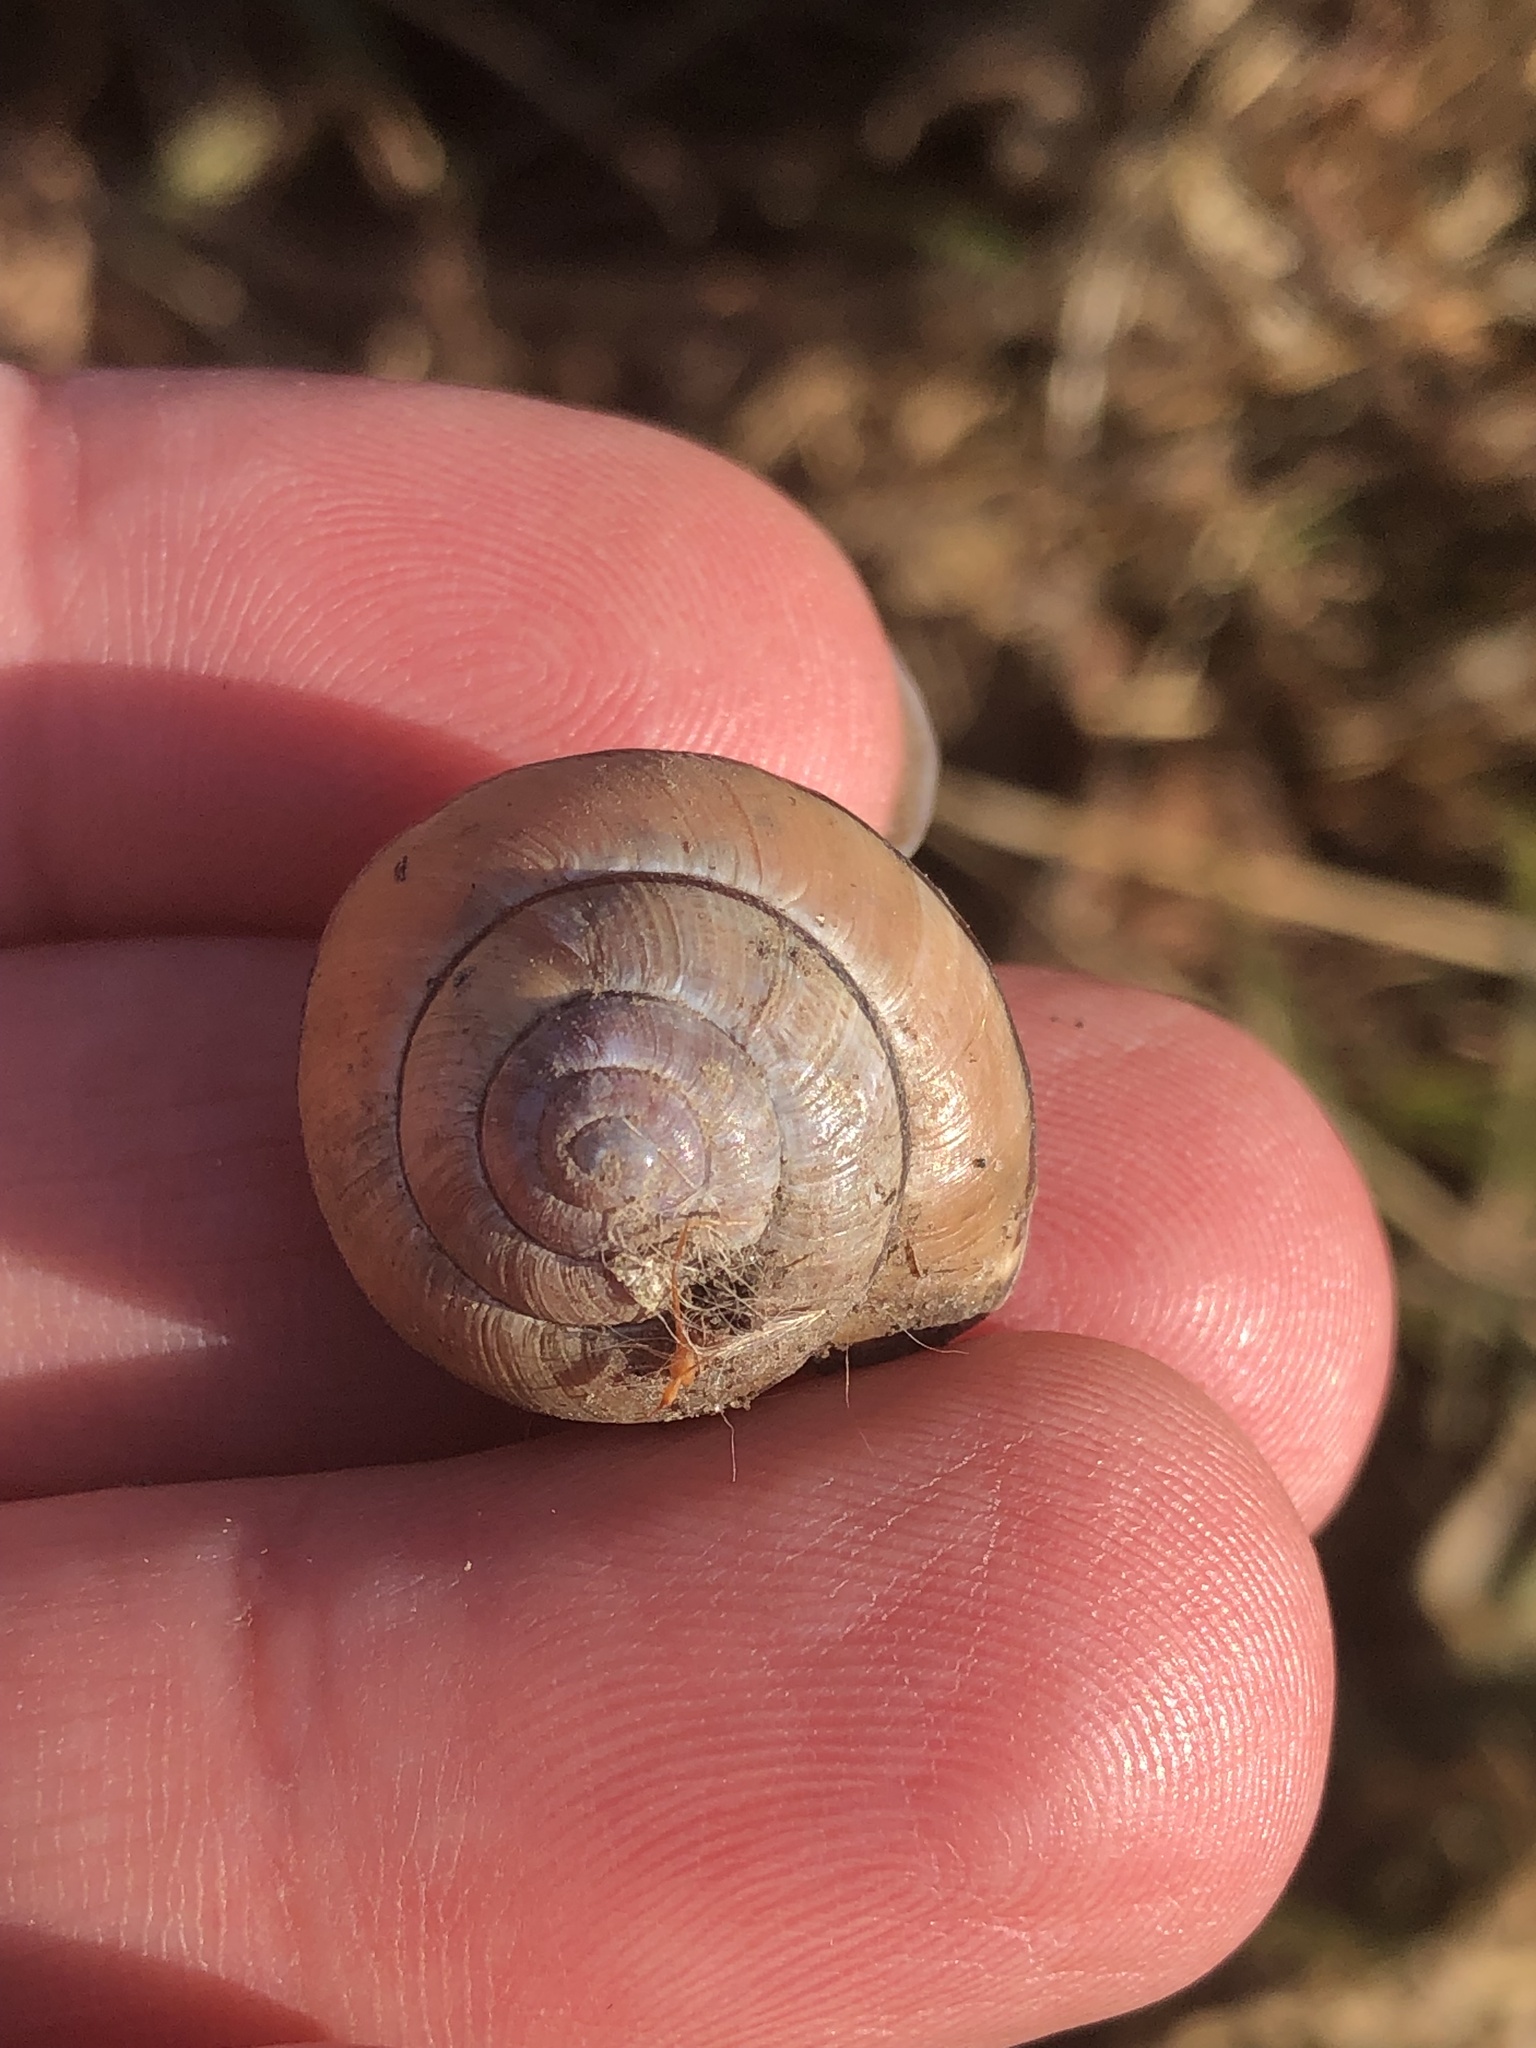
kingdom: Animalia
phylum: Mollusca
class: Gastropoda
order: Stylommatophora
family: Helicidae
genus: Cepaea
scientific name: Cepaea nemoralis
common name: Grovesnail
